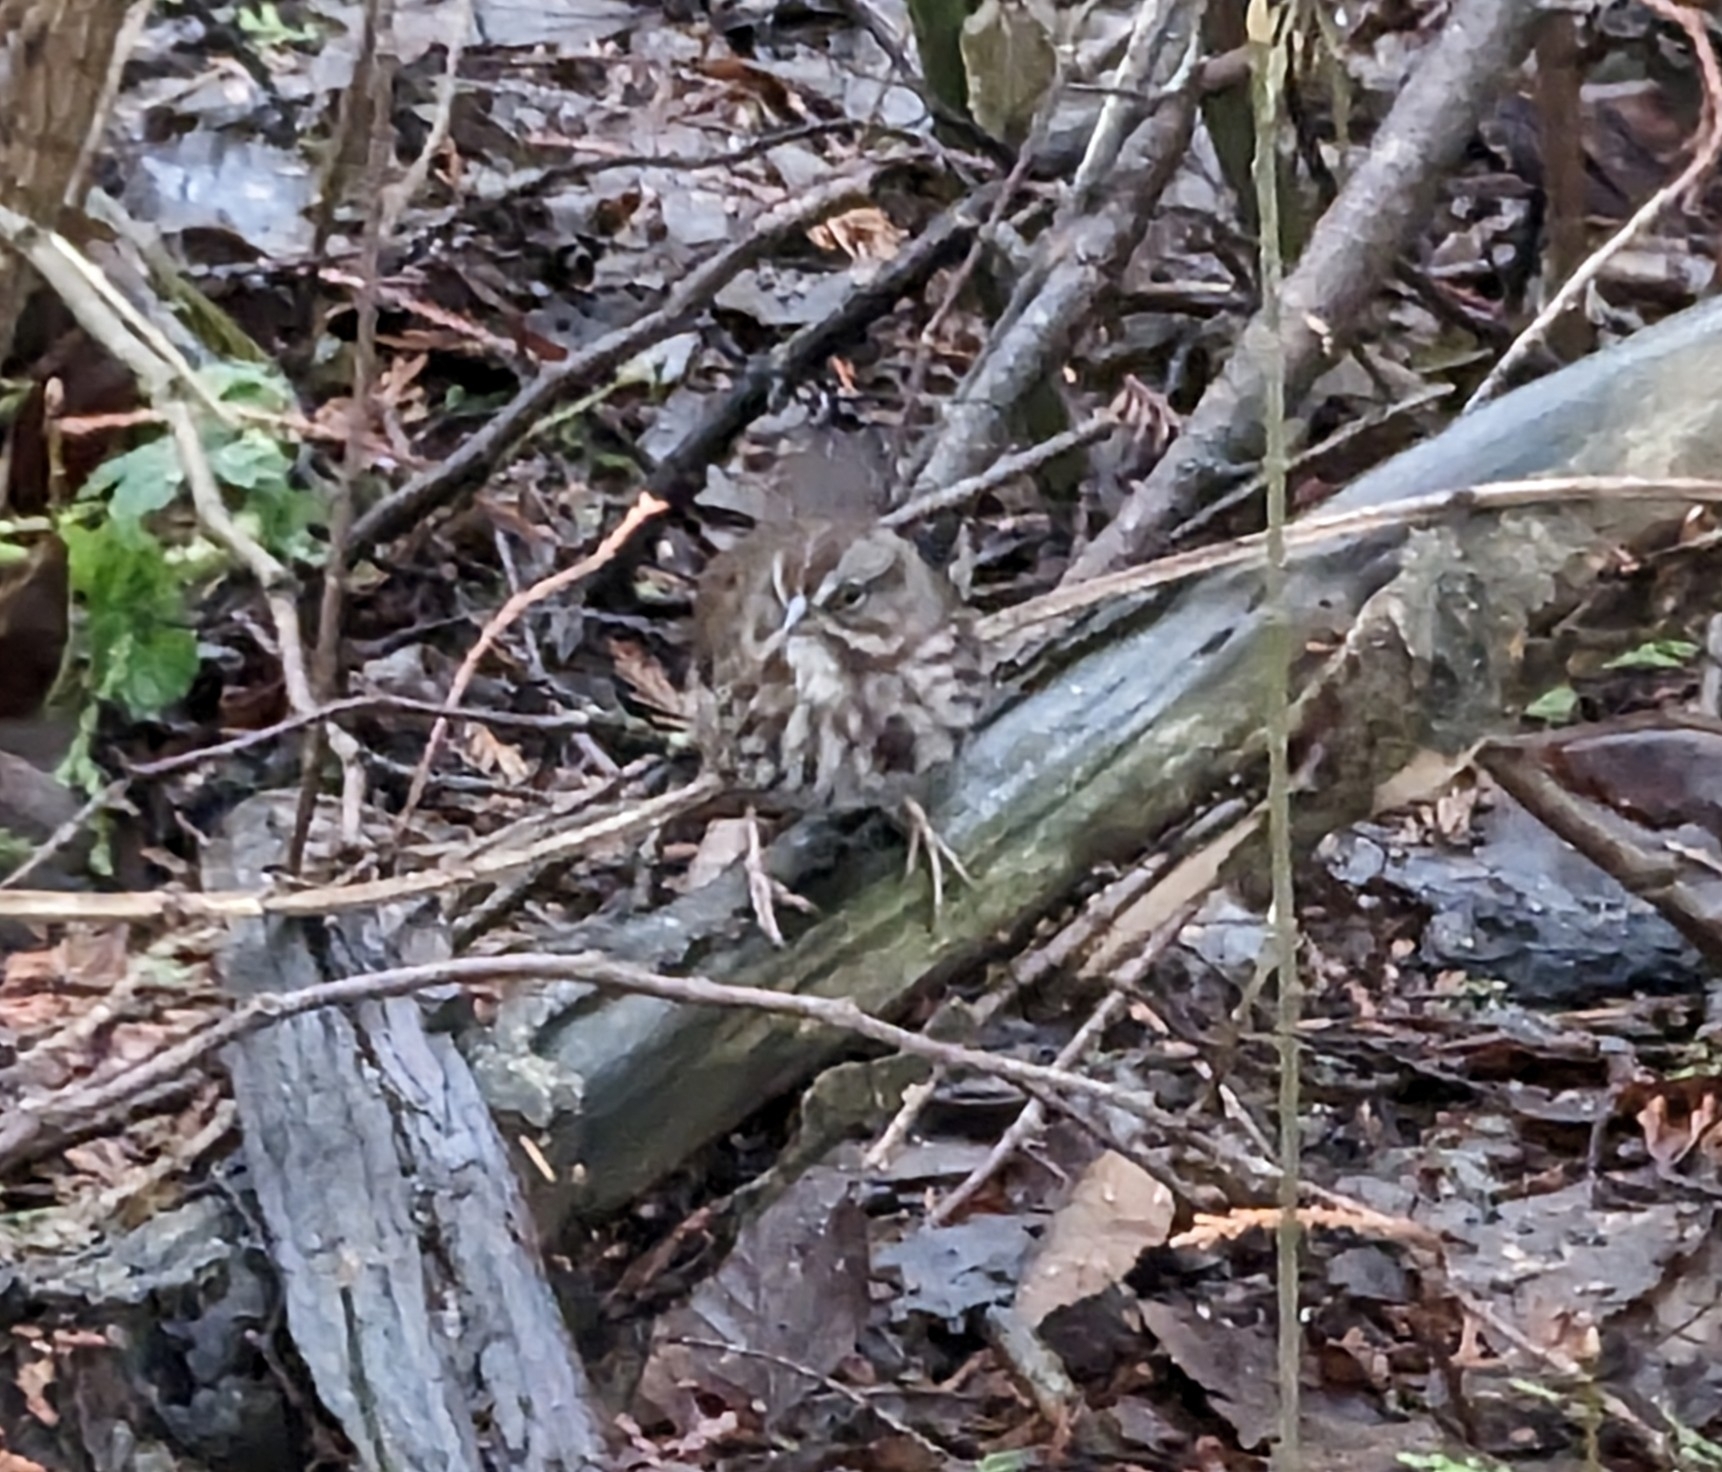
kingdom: Animalia
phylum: Chordata
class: Aves
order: Passeriformes
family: Passerellidae
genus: Melospiza
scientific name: Melospiza melodia
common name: Song sparrow
